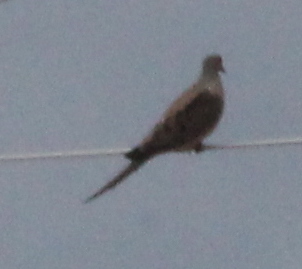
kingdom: Animalia
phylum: Chordata
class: Aves
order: Columbiformes
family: Columbidae
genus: Zenaida
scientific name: Zenaida macroura
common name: Mourning dove
